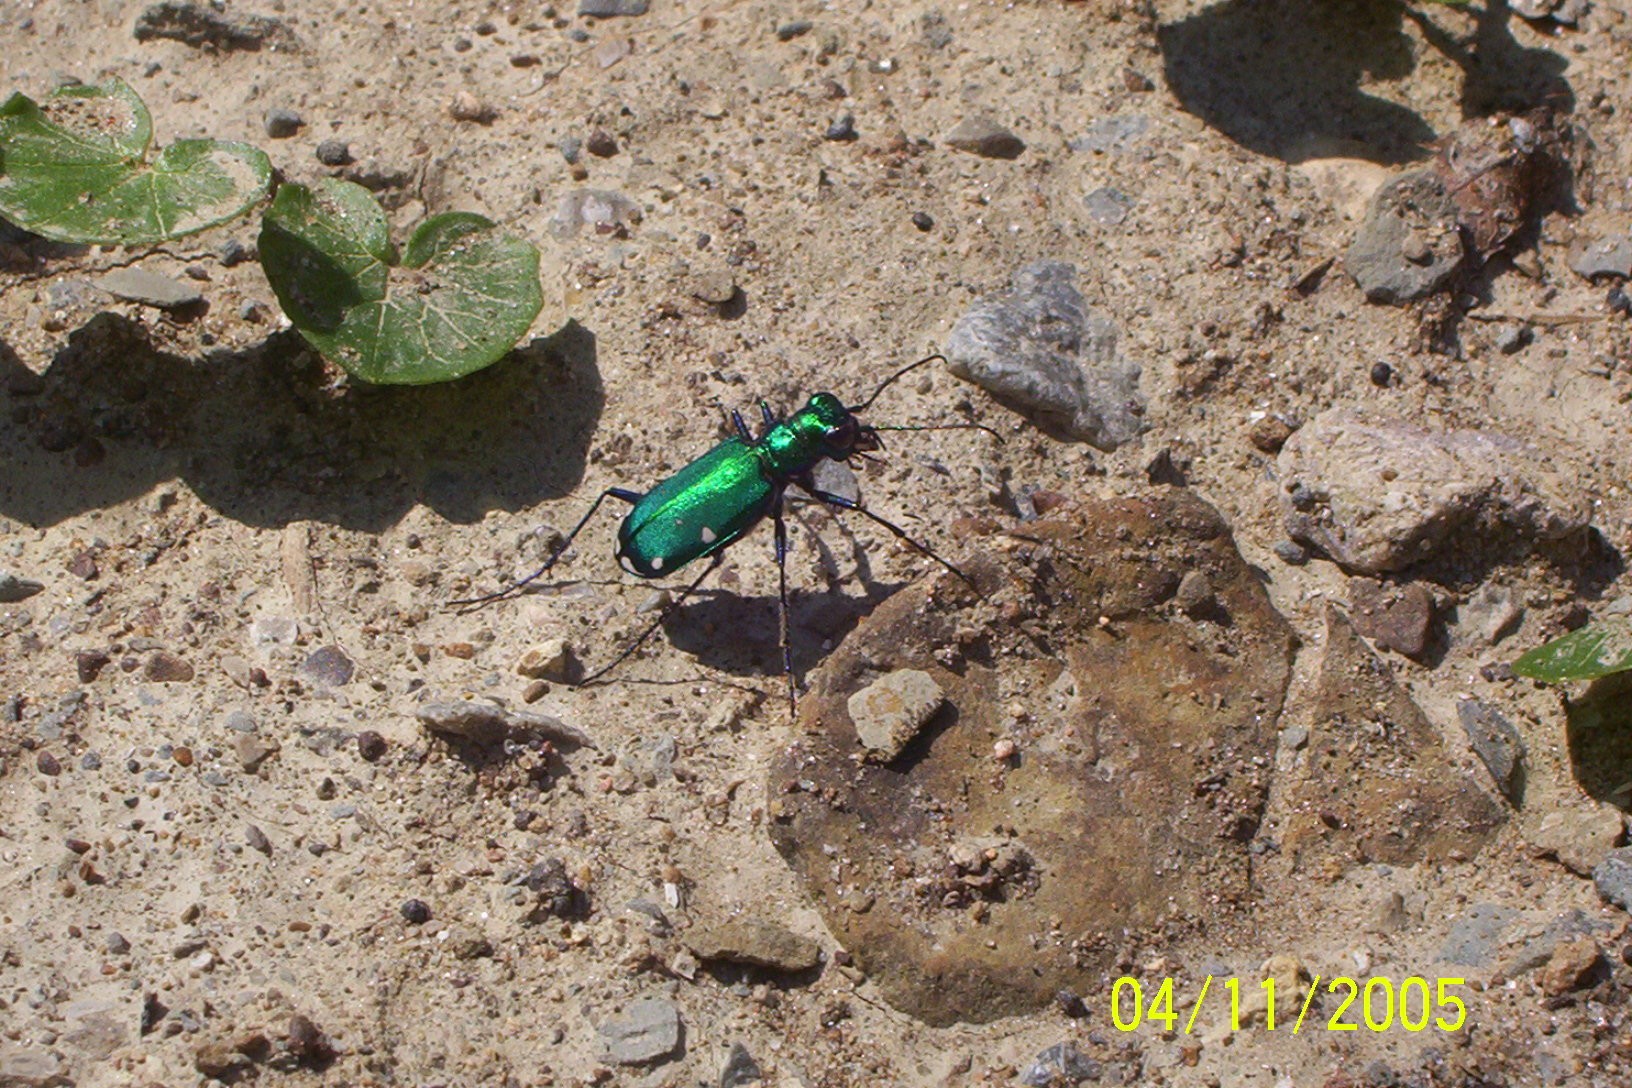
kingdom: Animalia
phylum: Arthropoda
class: Insecta
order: Coleoptera
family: Carabidae
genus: Cicindela
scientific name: Cicindela sexguttata
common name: Six-spotted tiger beetle
